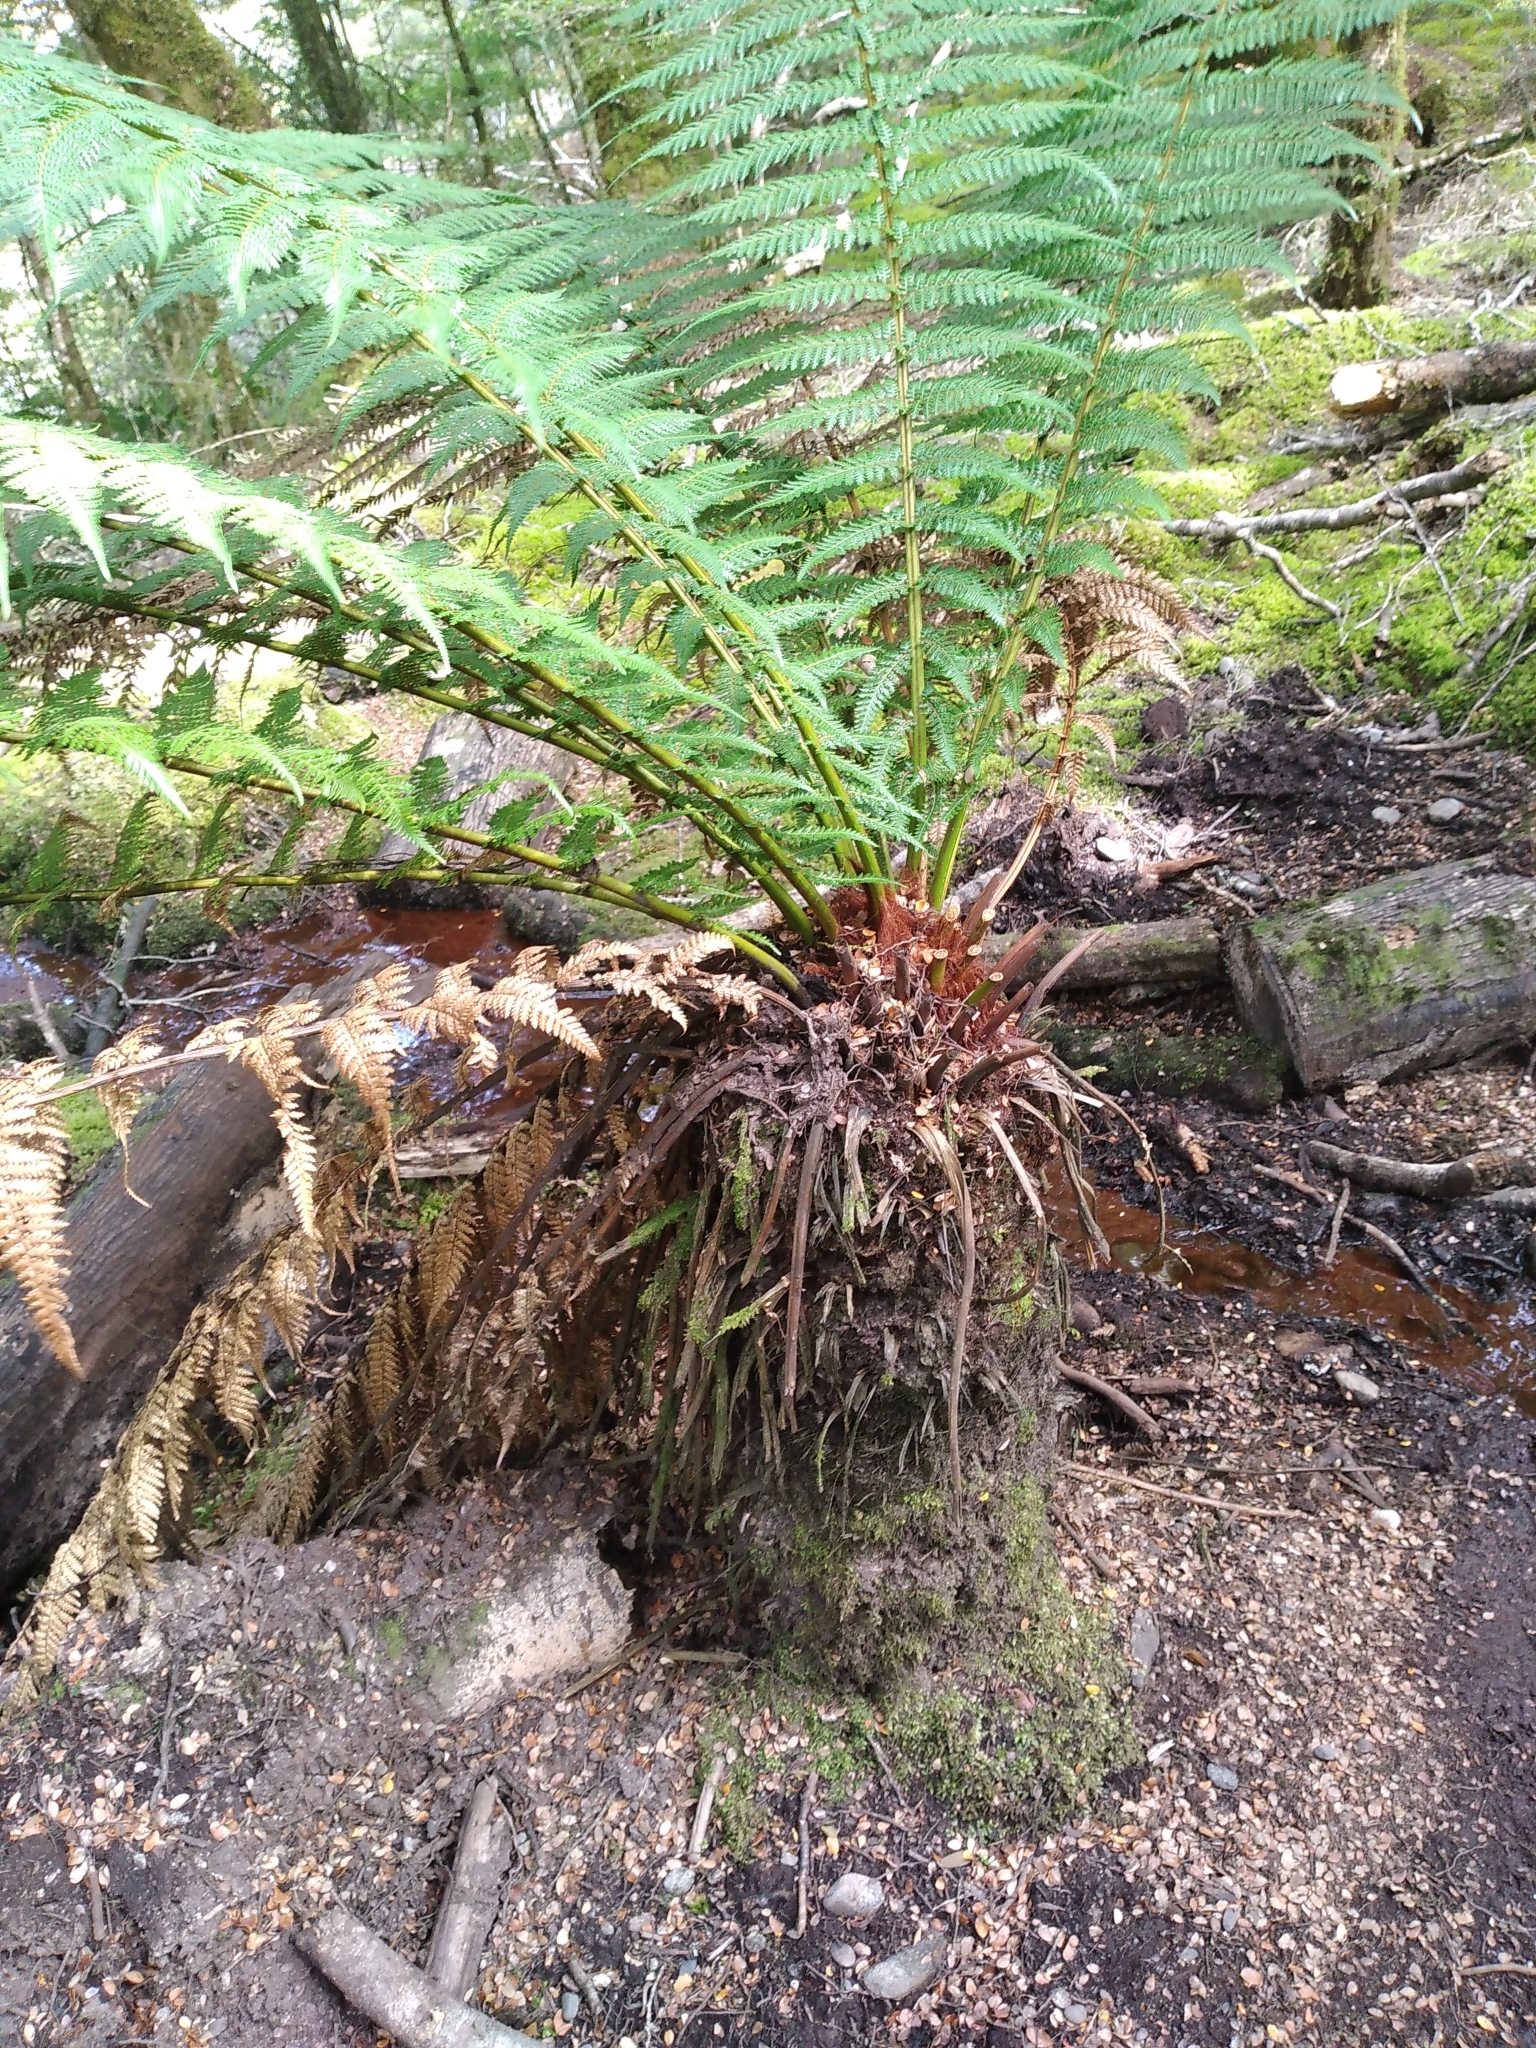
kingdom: Plantae
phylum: Tracheophyta
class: Polypodiopsida
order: Cyatheales
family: Dicksoniaceae
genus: Dicksonia
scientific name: Dicksonia fibrosa
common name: Golden tree fern
